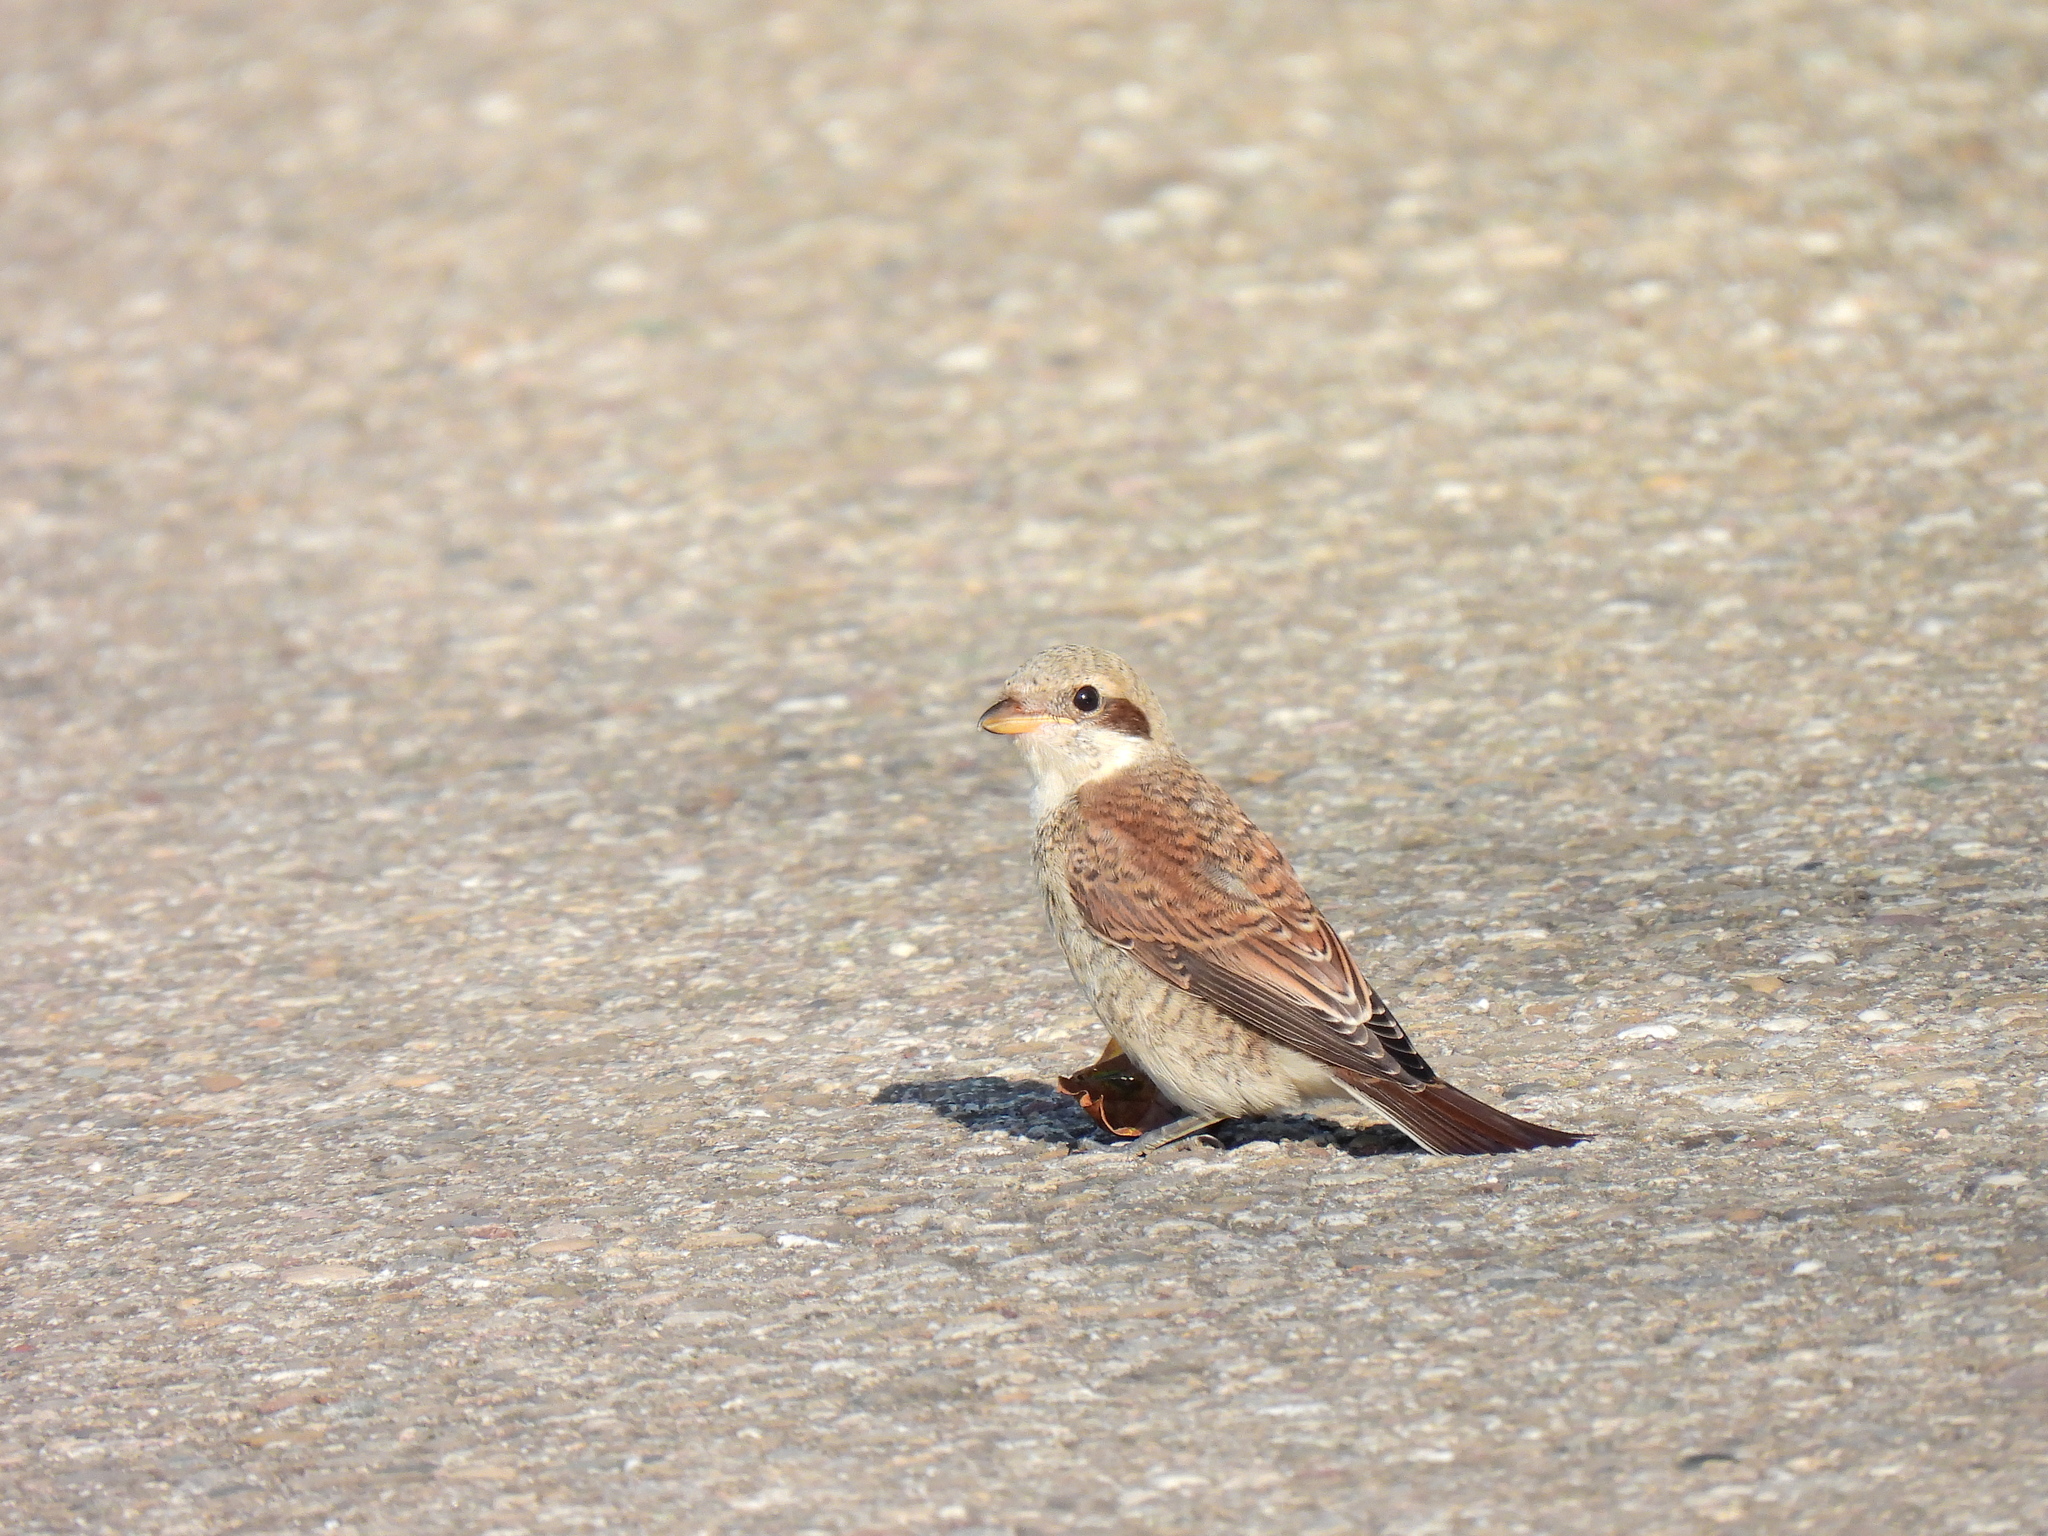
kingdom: Animalia
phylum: Chordata
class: Aves
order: Passeriformes
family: Laniidae
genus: Lanius
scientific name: Lanius collurio
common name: Red-backed shrike
